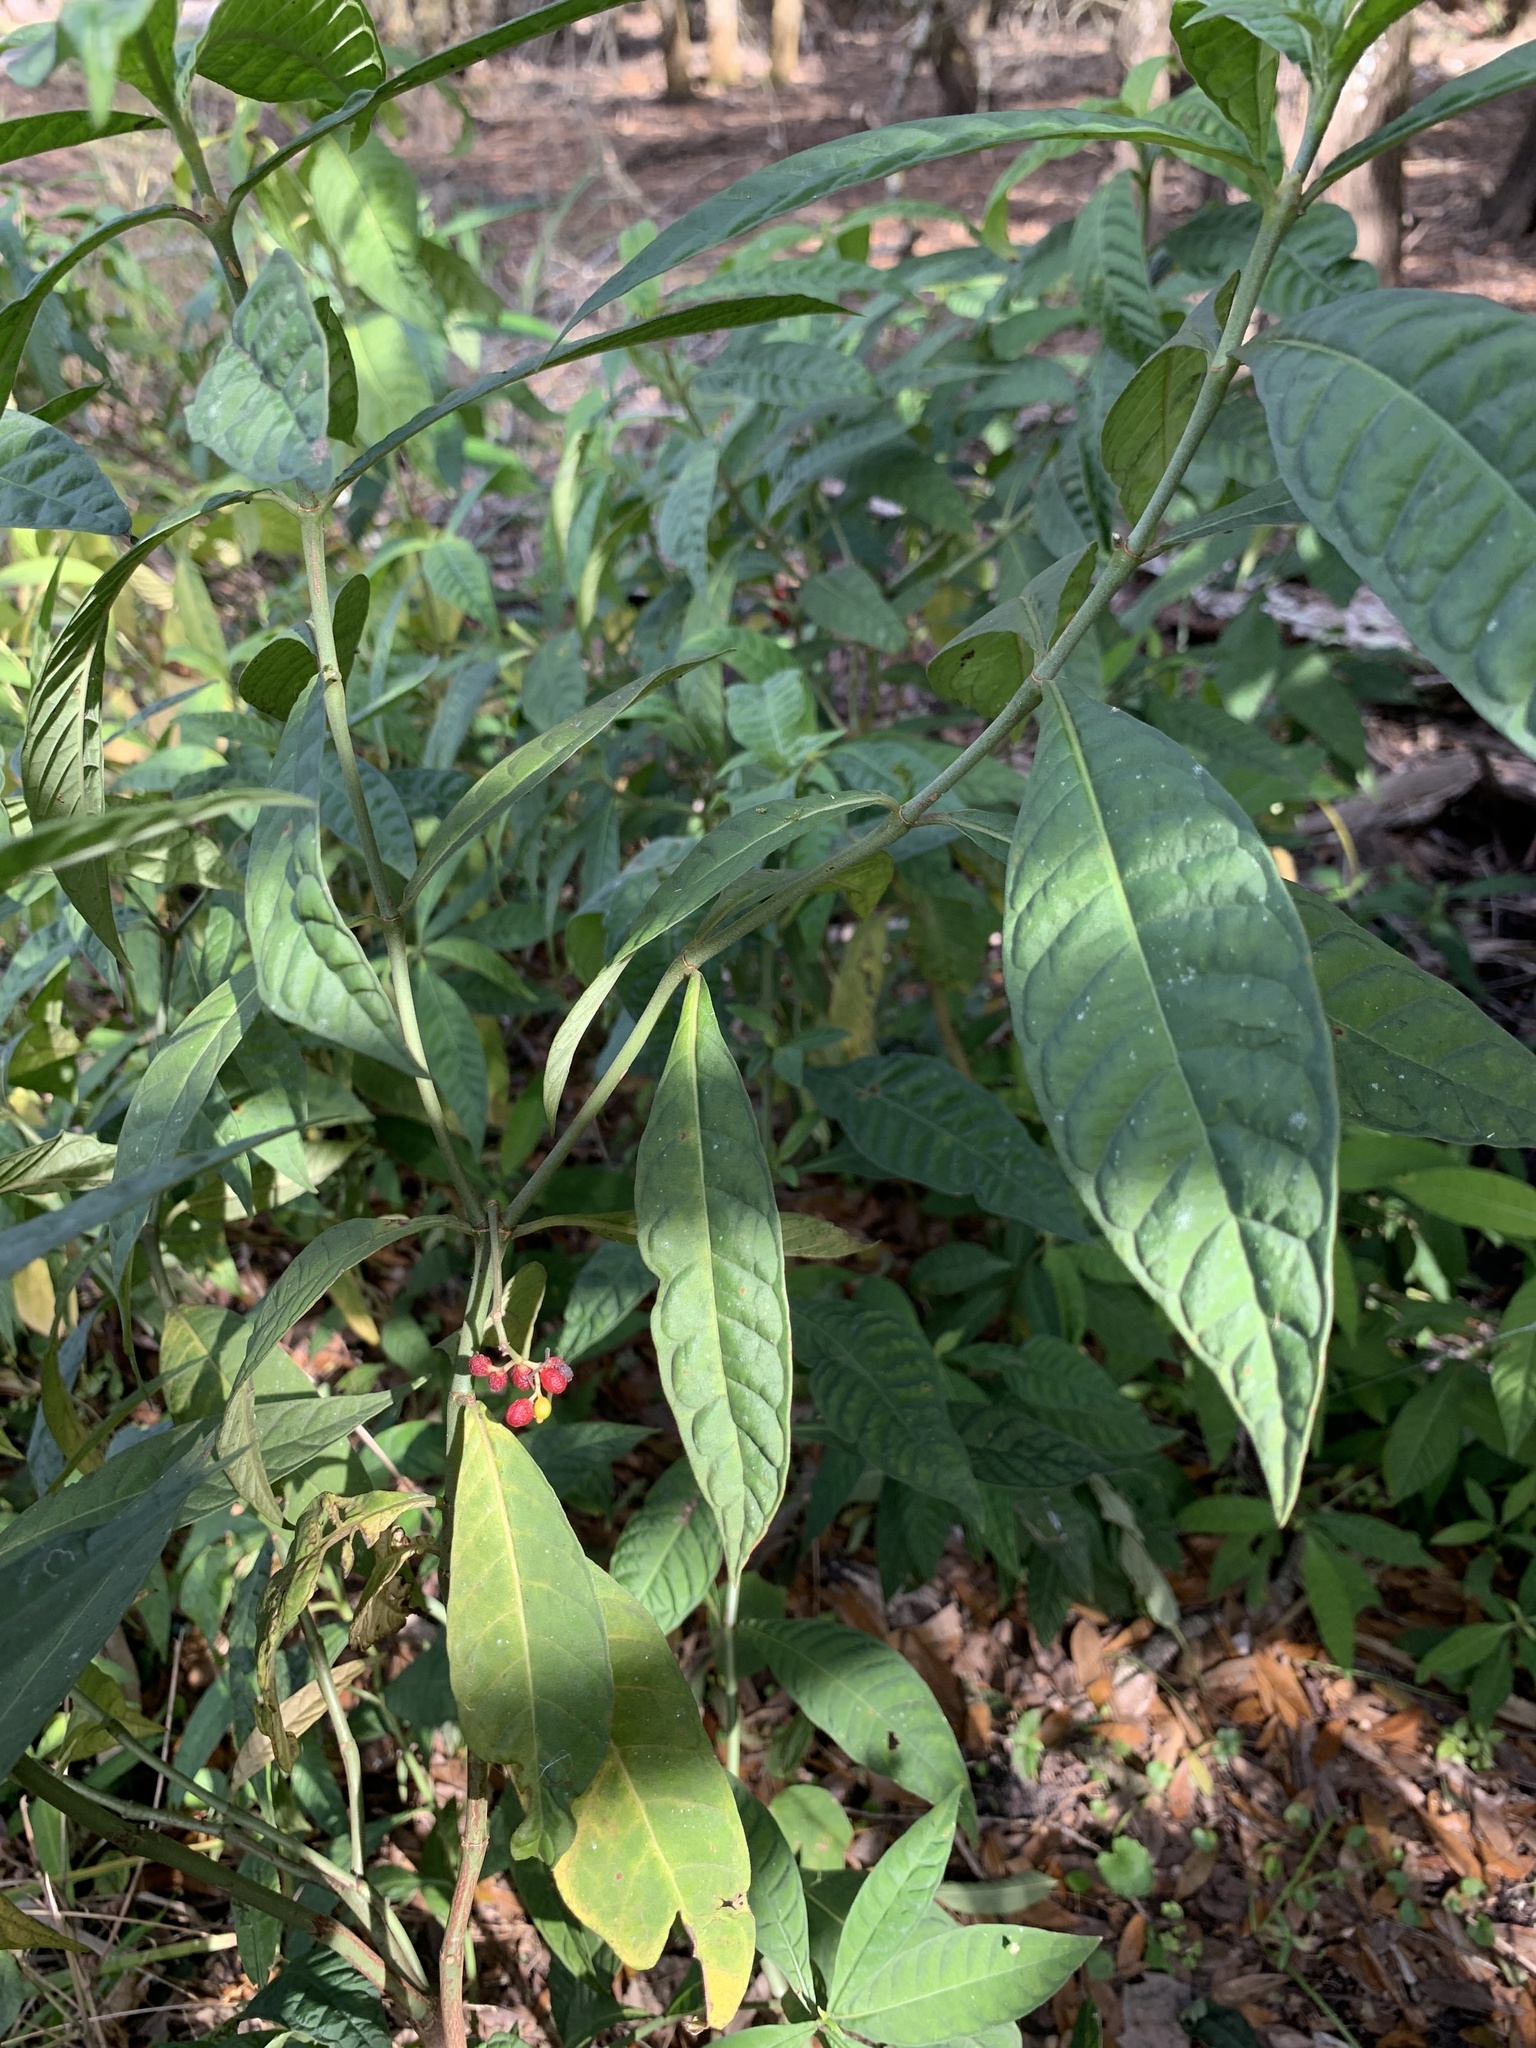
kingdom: Plantae
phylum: Tracheophyta
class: Magnoliopsida
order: Gentianales
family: Rubiaceae
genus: Psychotria
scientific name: Psychotria tenuifolia
